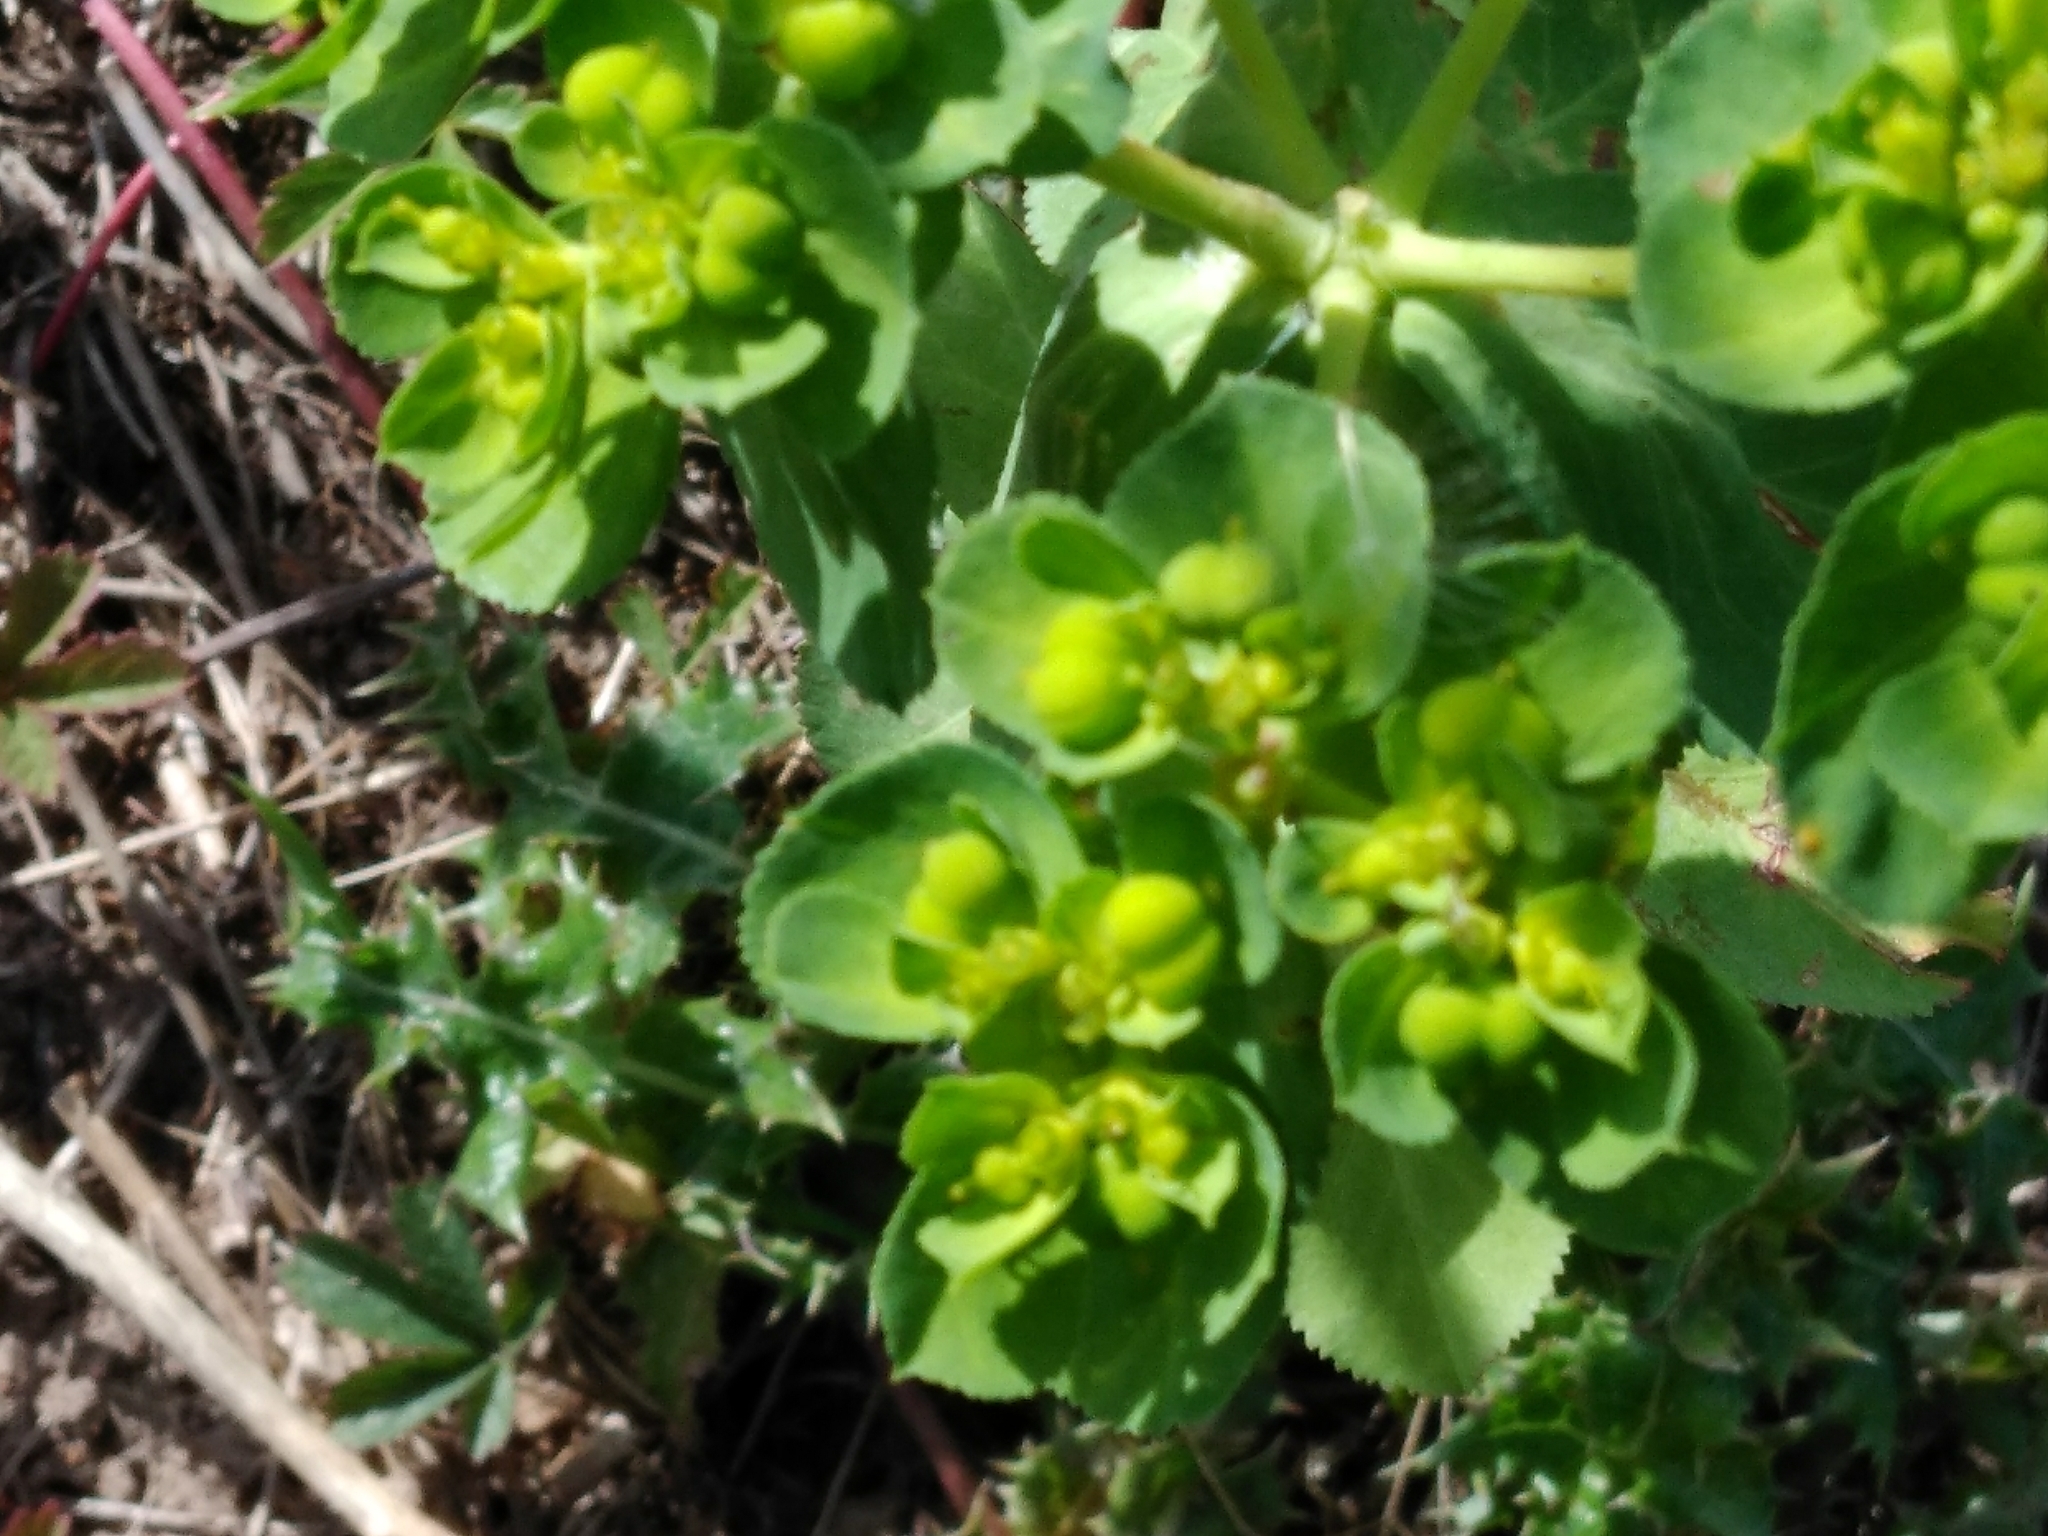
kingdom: Plantae
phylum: Tracheophyta
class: Magnoliopsida
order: Malpighiales
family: Euphorbiaceae
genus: Euphorbia
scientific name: Euphorbia helioscopia
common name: Sun spurge
